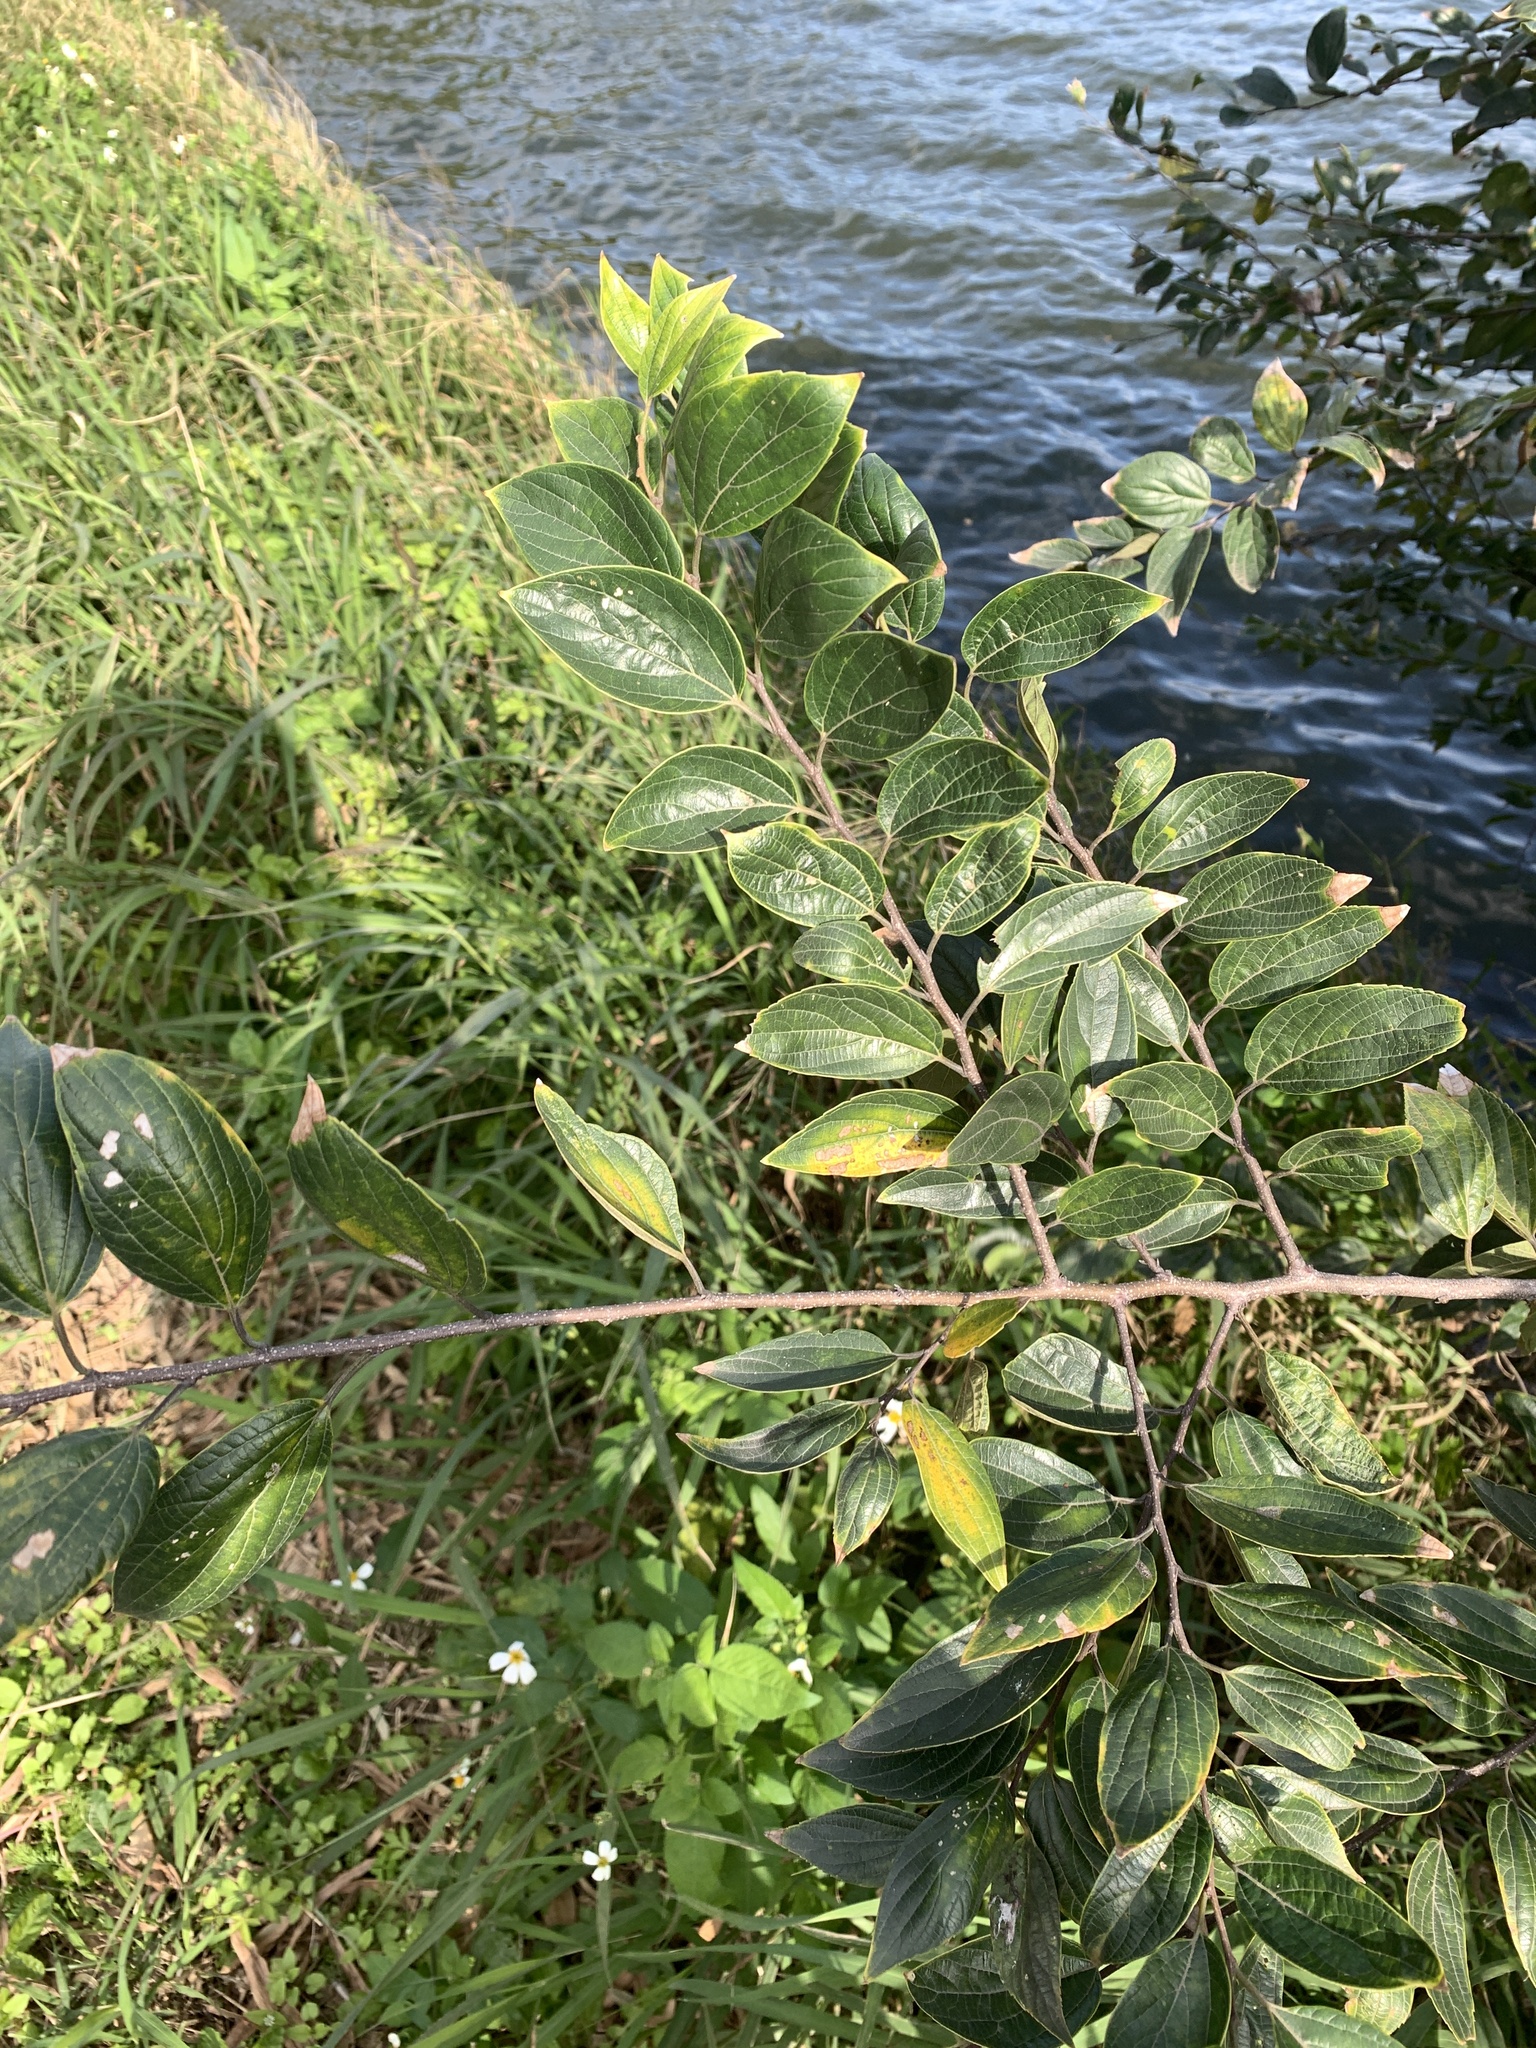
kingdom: Plantae
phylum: Tracheophyta
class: Magnoliopsida
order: Rosales
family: Cannabaceae
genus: Celtis
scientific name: Celtis sinensis
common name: Chinese hackberry
